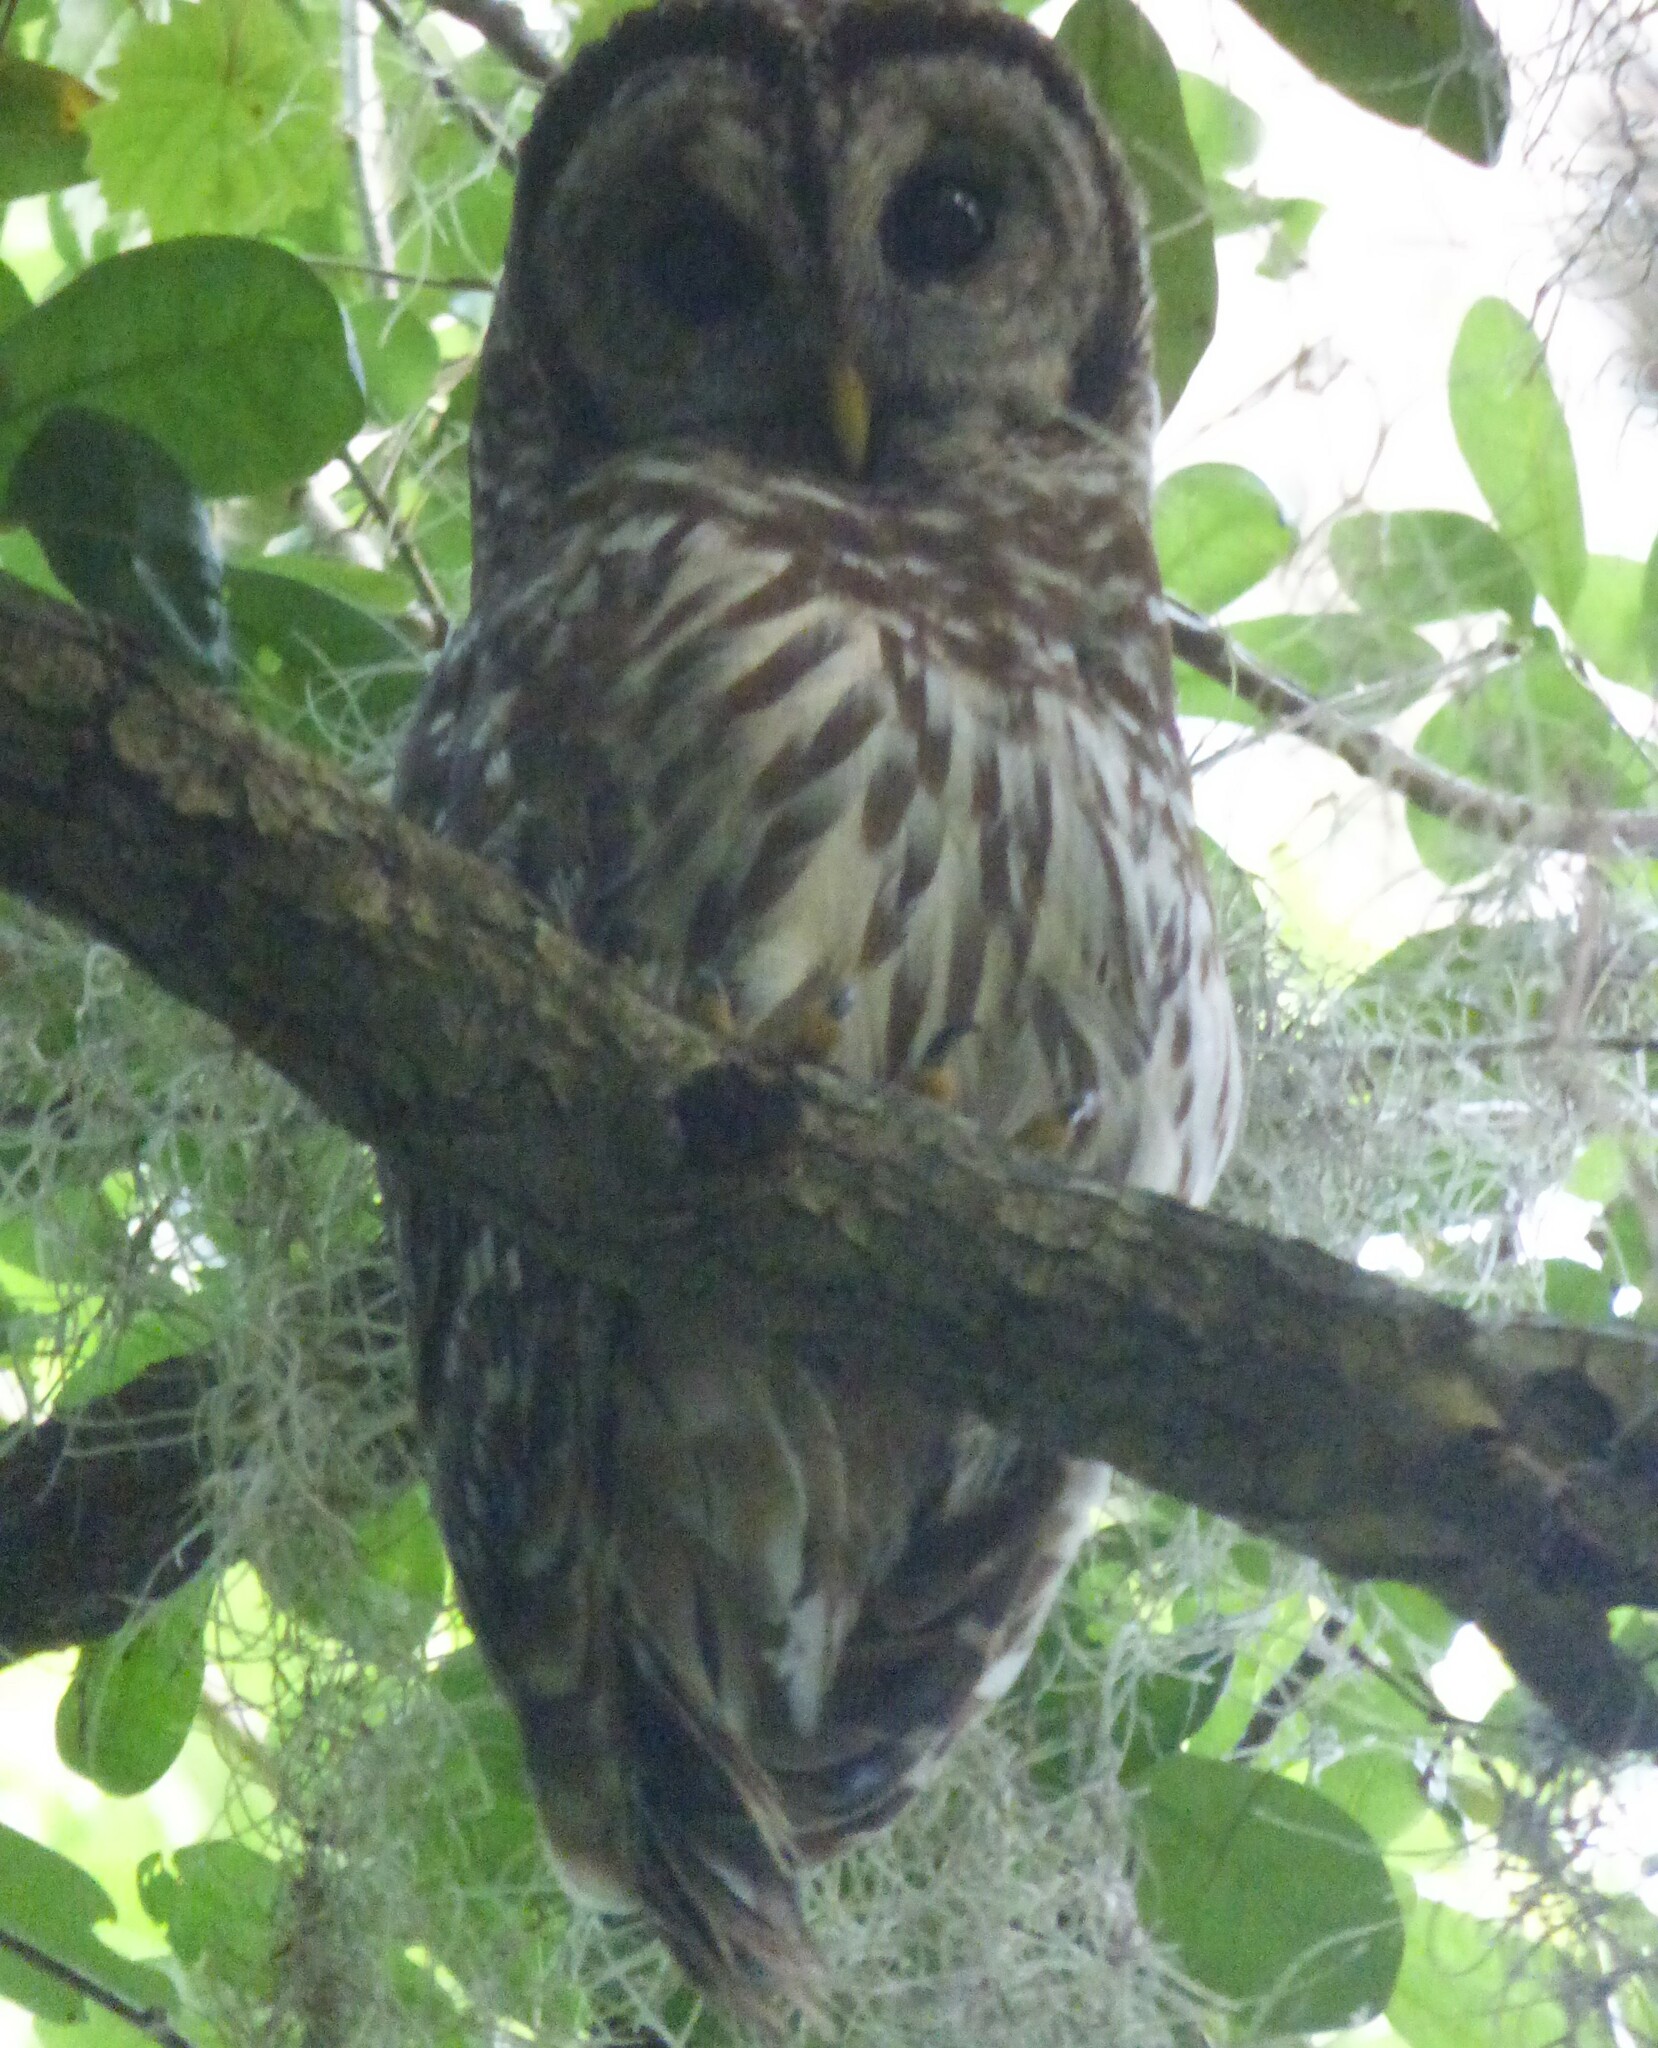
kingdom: Animalia
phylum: Chordata
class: Aves
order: Strigiformes
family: Strigidae
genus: Strix
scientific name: Strix varia
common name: Barred owl
